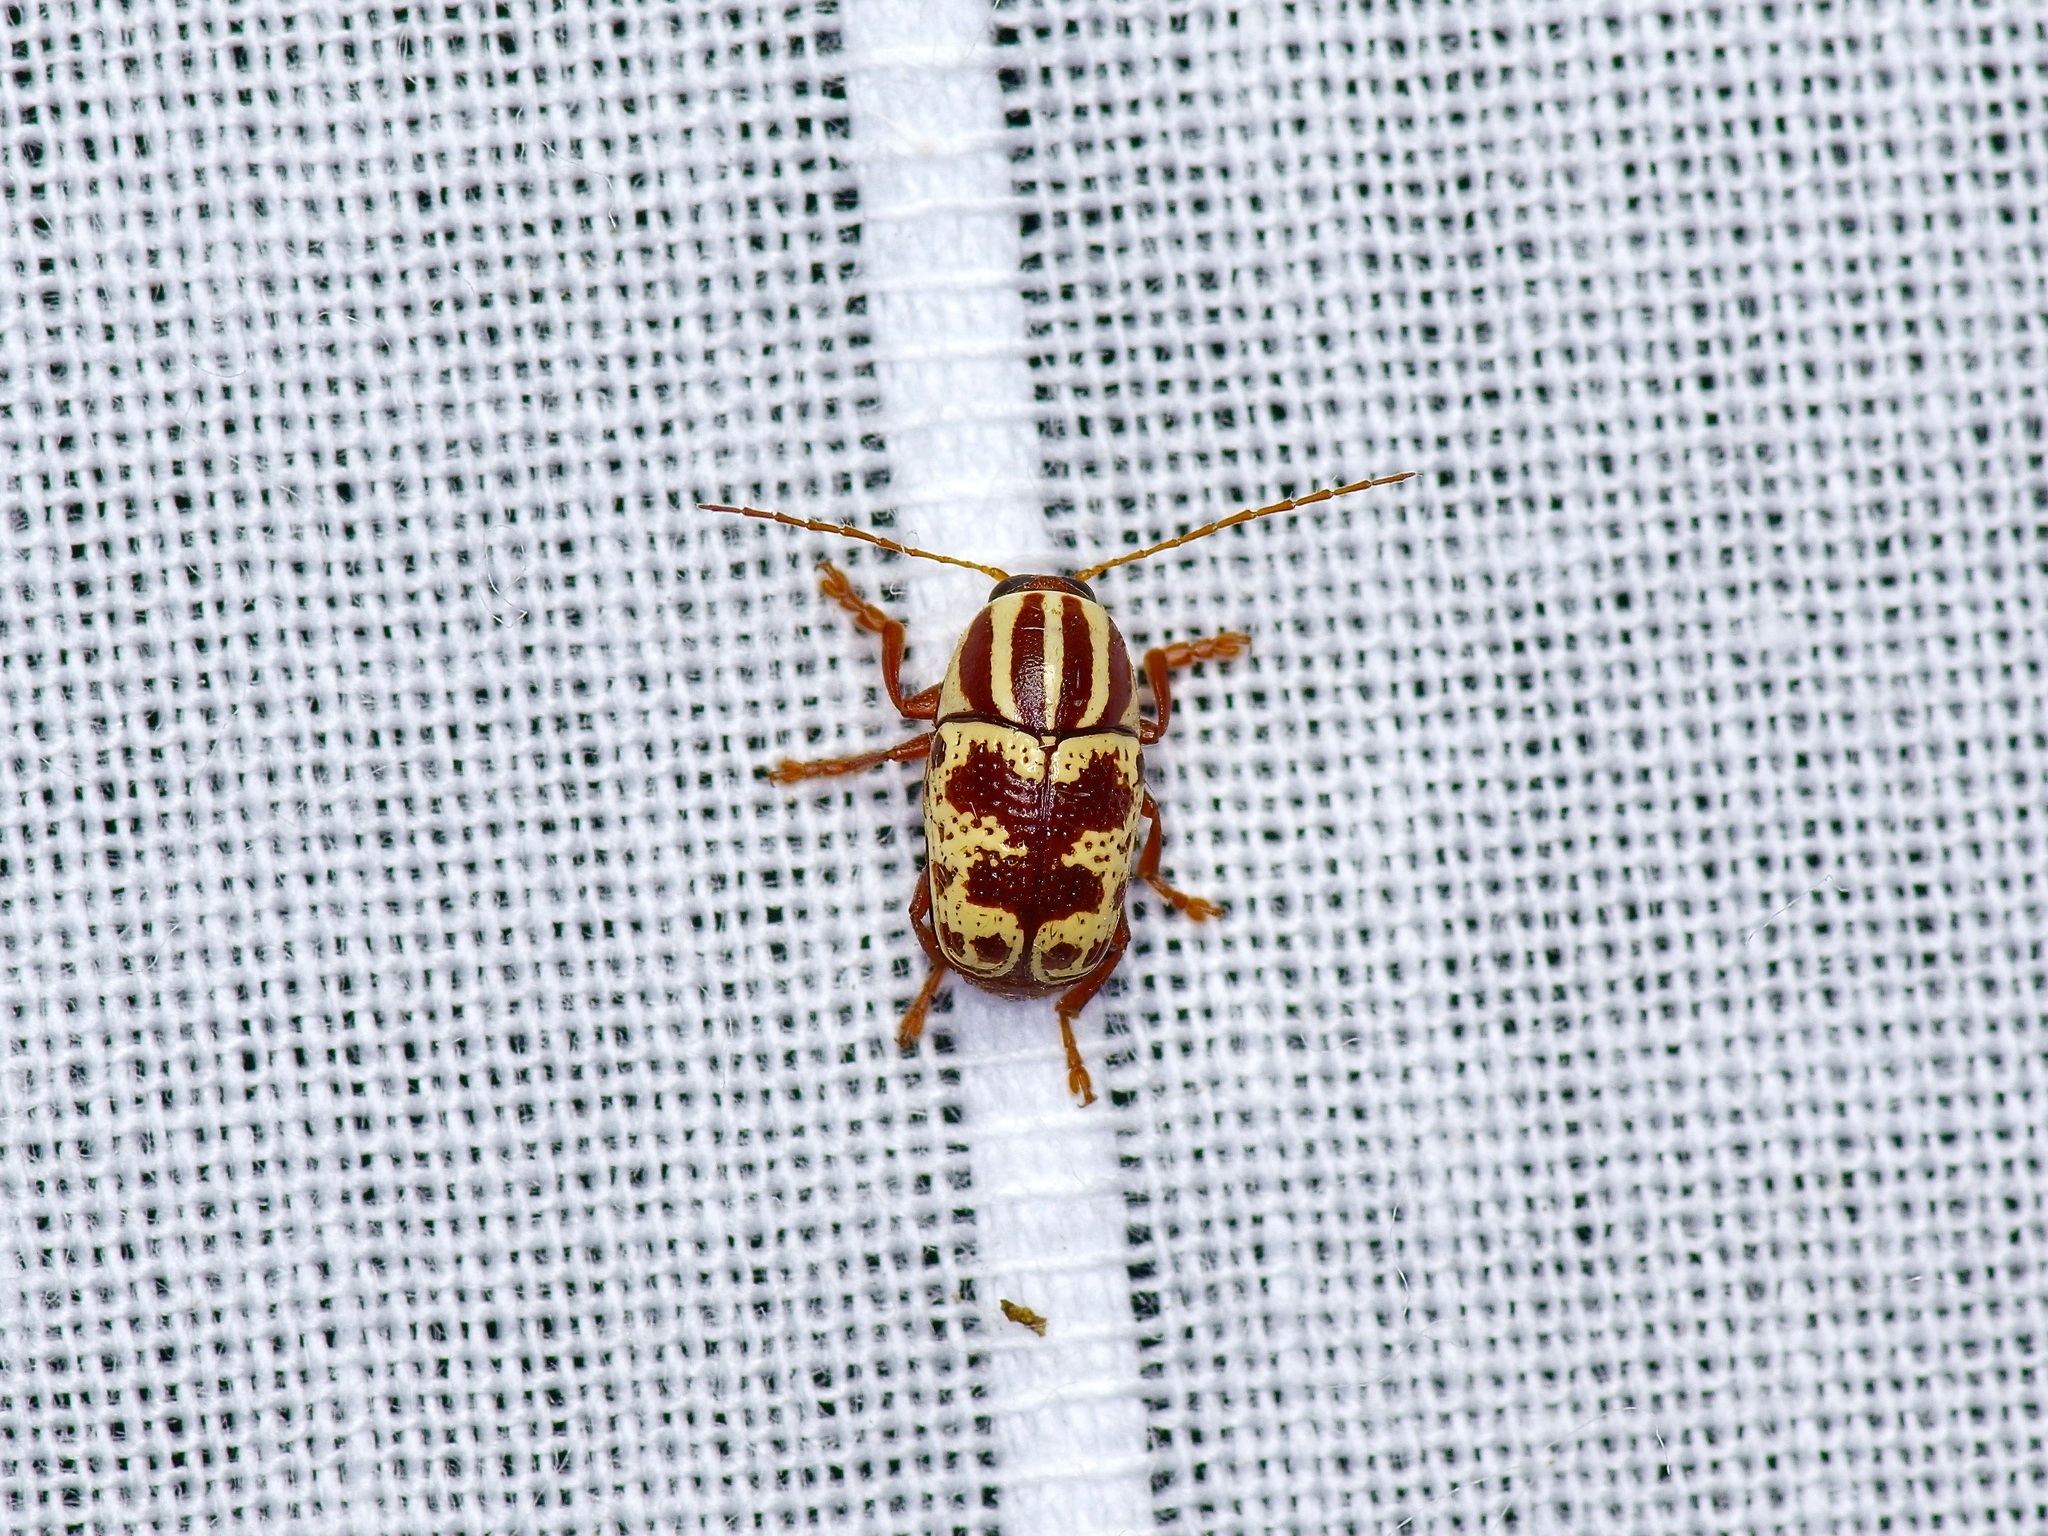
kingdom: Animalia
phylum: Arthropoda
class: Insecta
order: Coleoptera
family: Chrysomelidae
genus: Cryptocephalus
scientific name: Cryptocephalus leucomelas
